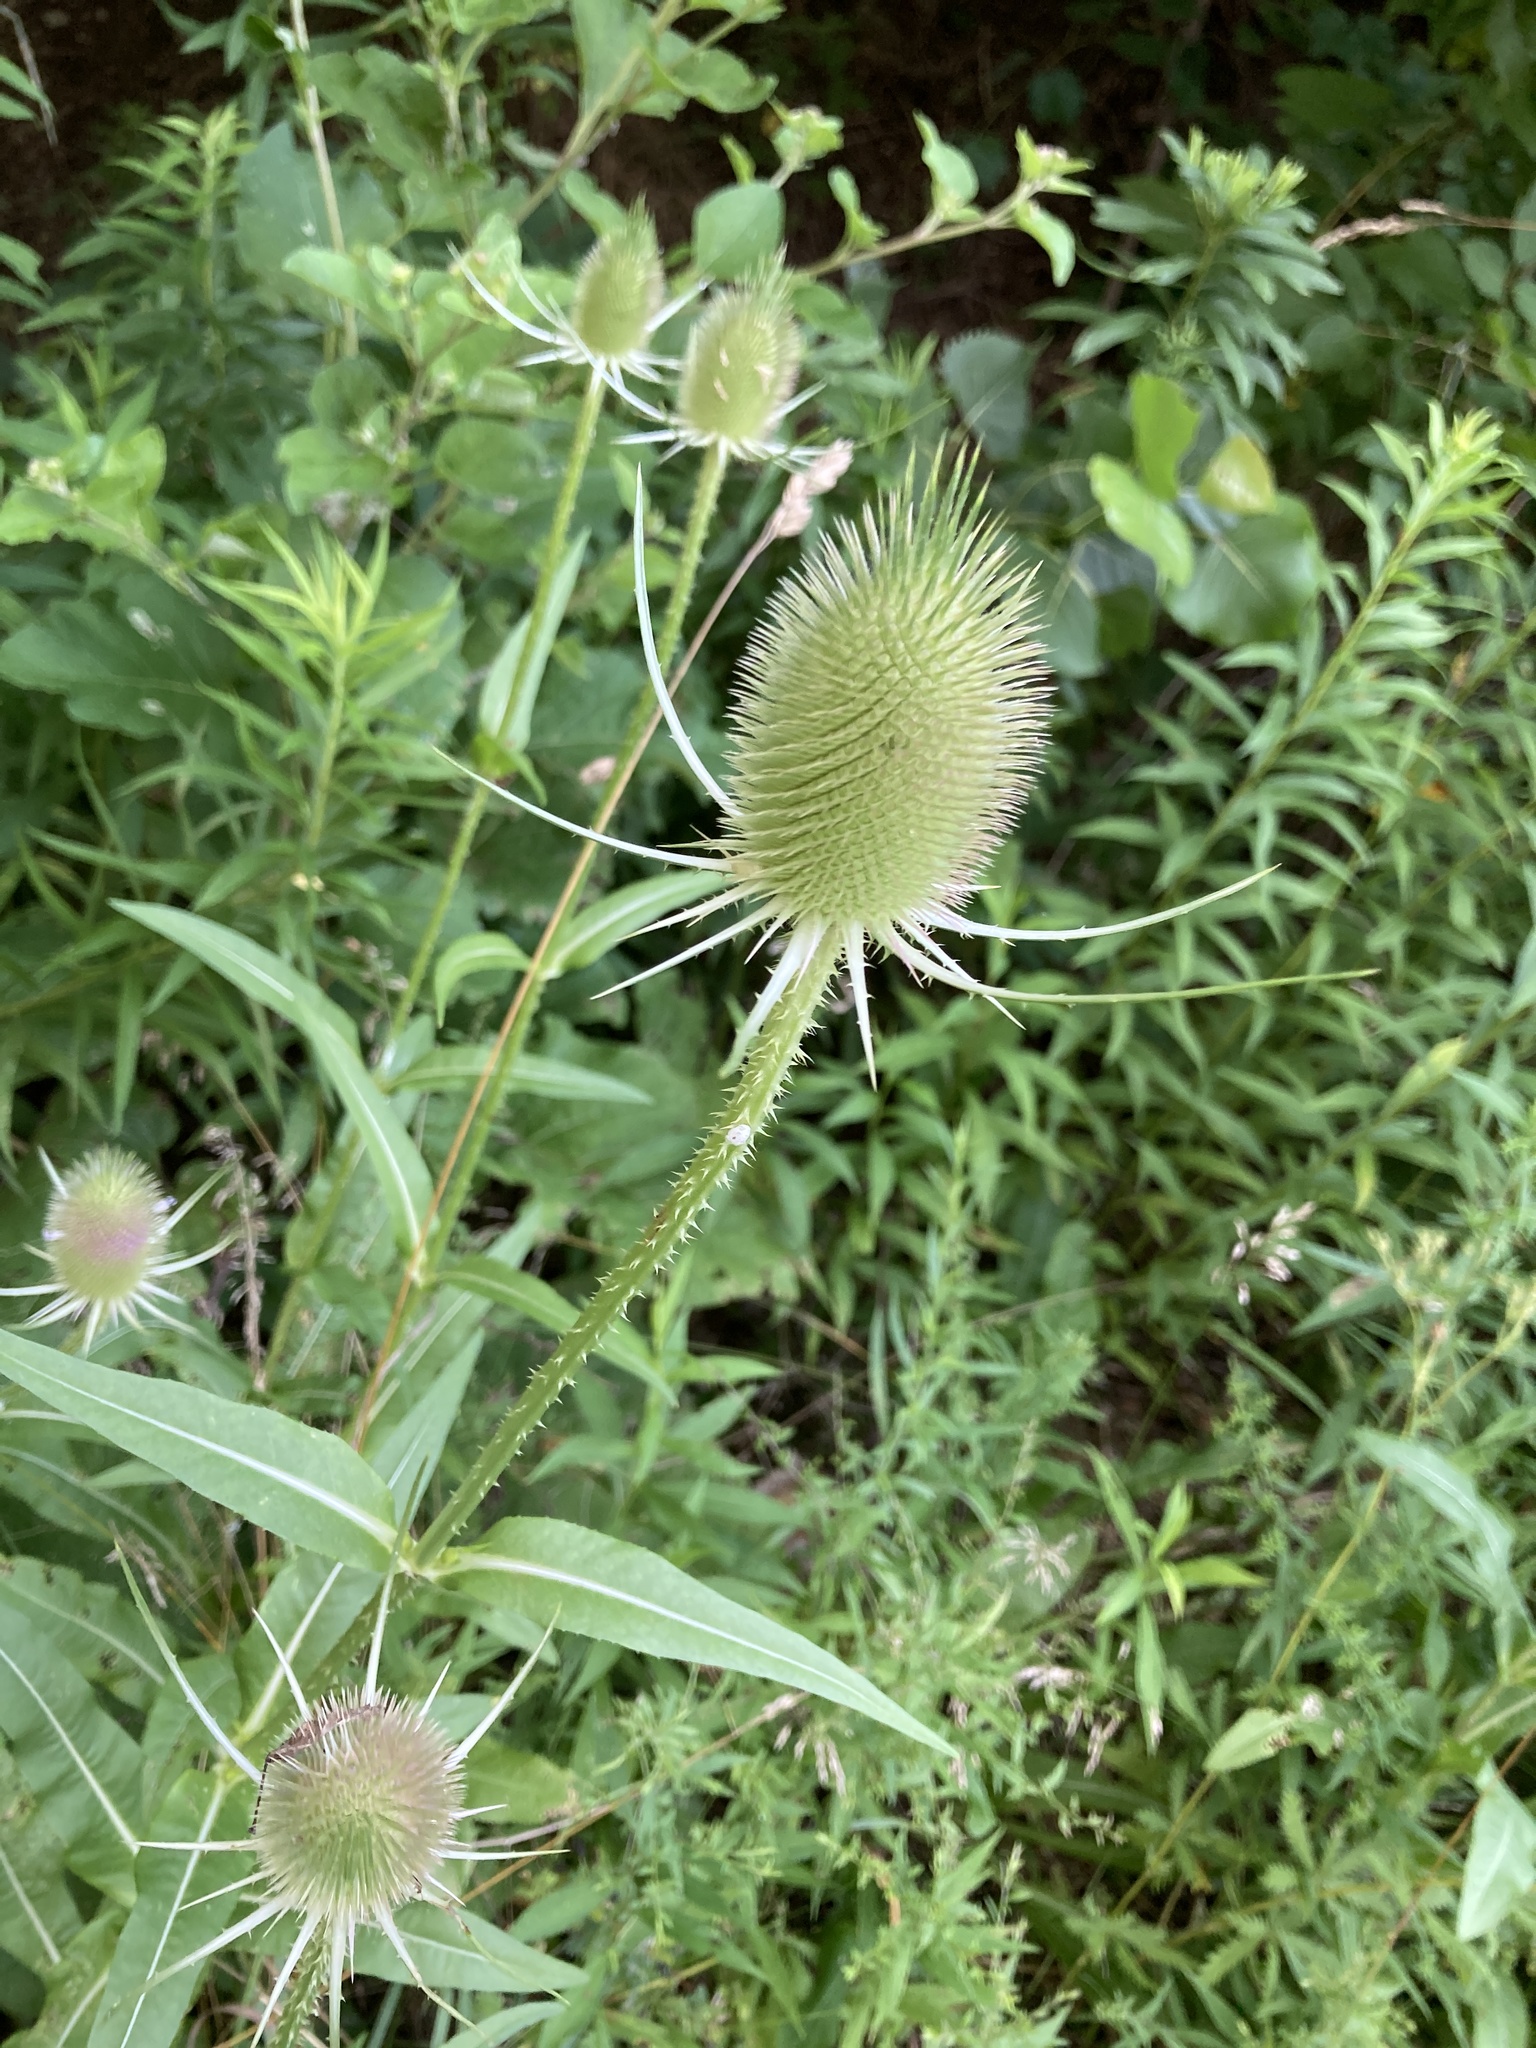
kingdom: Plantae
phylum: Tracheophyta
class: Magnoliopsida
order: Dipsacales
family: Caprifoliaceae
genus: Dipsacus
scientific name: Dipsacus fullonum
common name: Teasel
